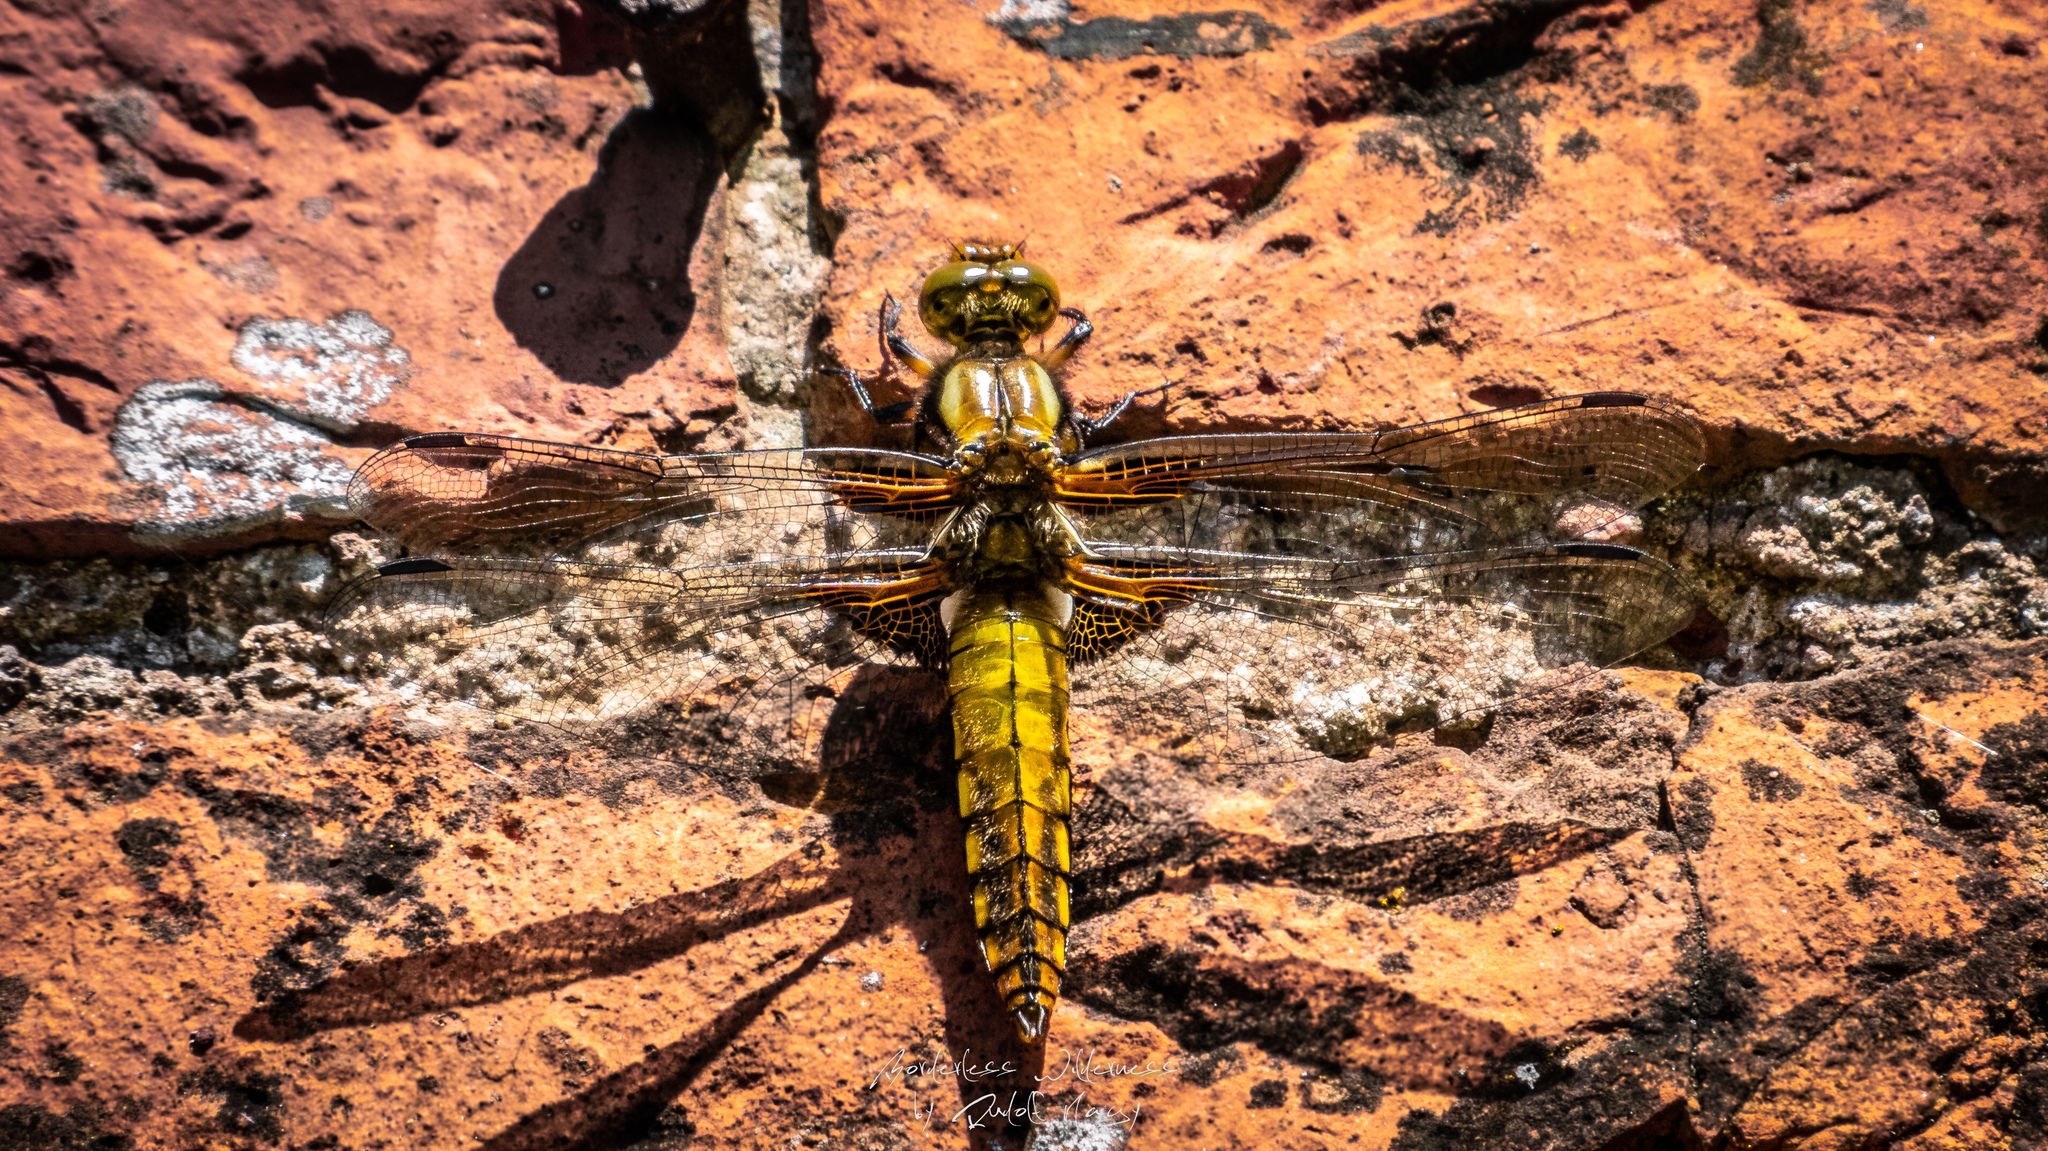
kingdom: Animalia
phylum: Arthropoda
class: Insecta
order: Odonata
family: Libellulidae
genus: Libellula
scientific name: Libellula depressa
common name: Broad-bodied chaser
